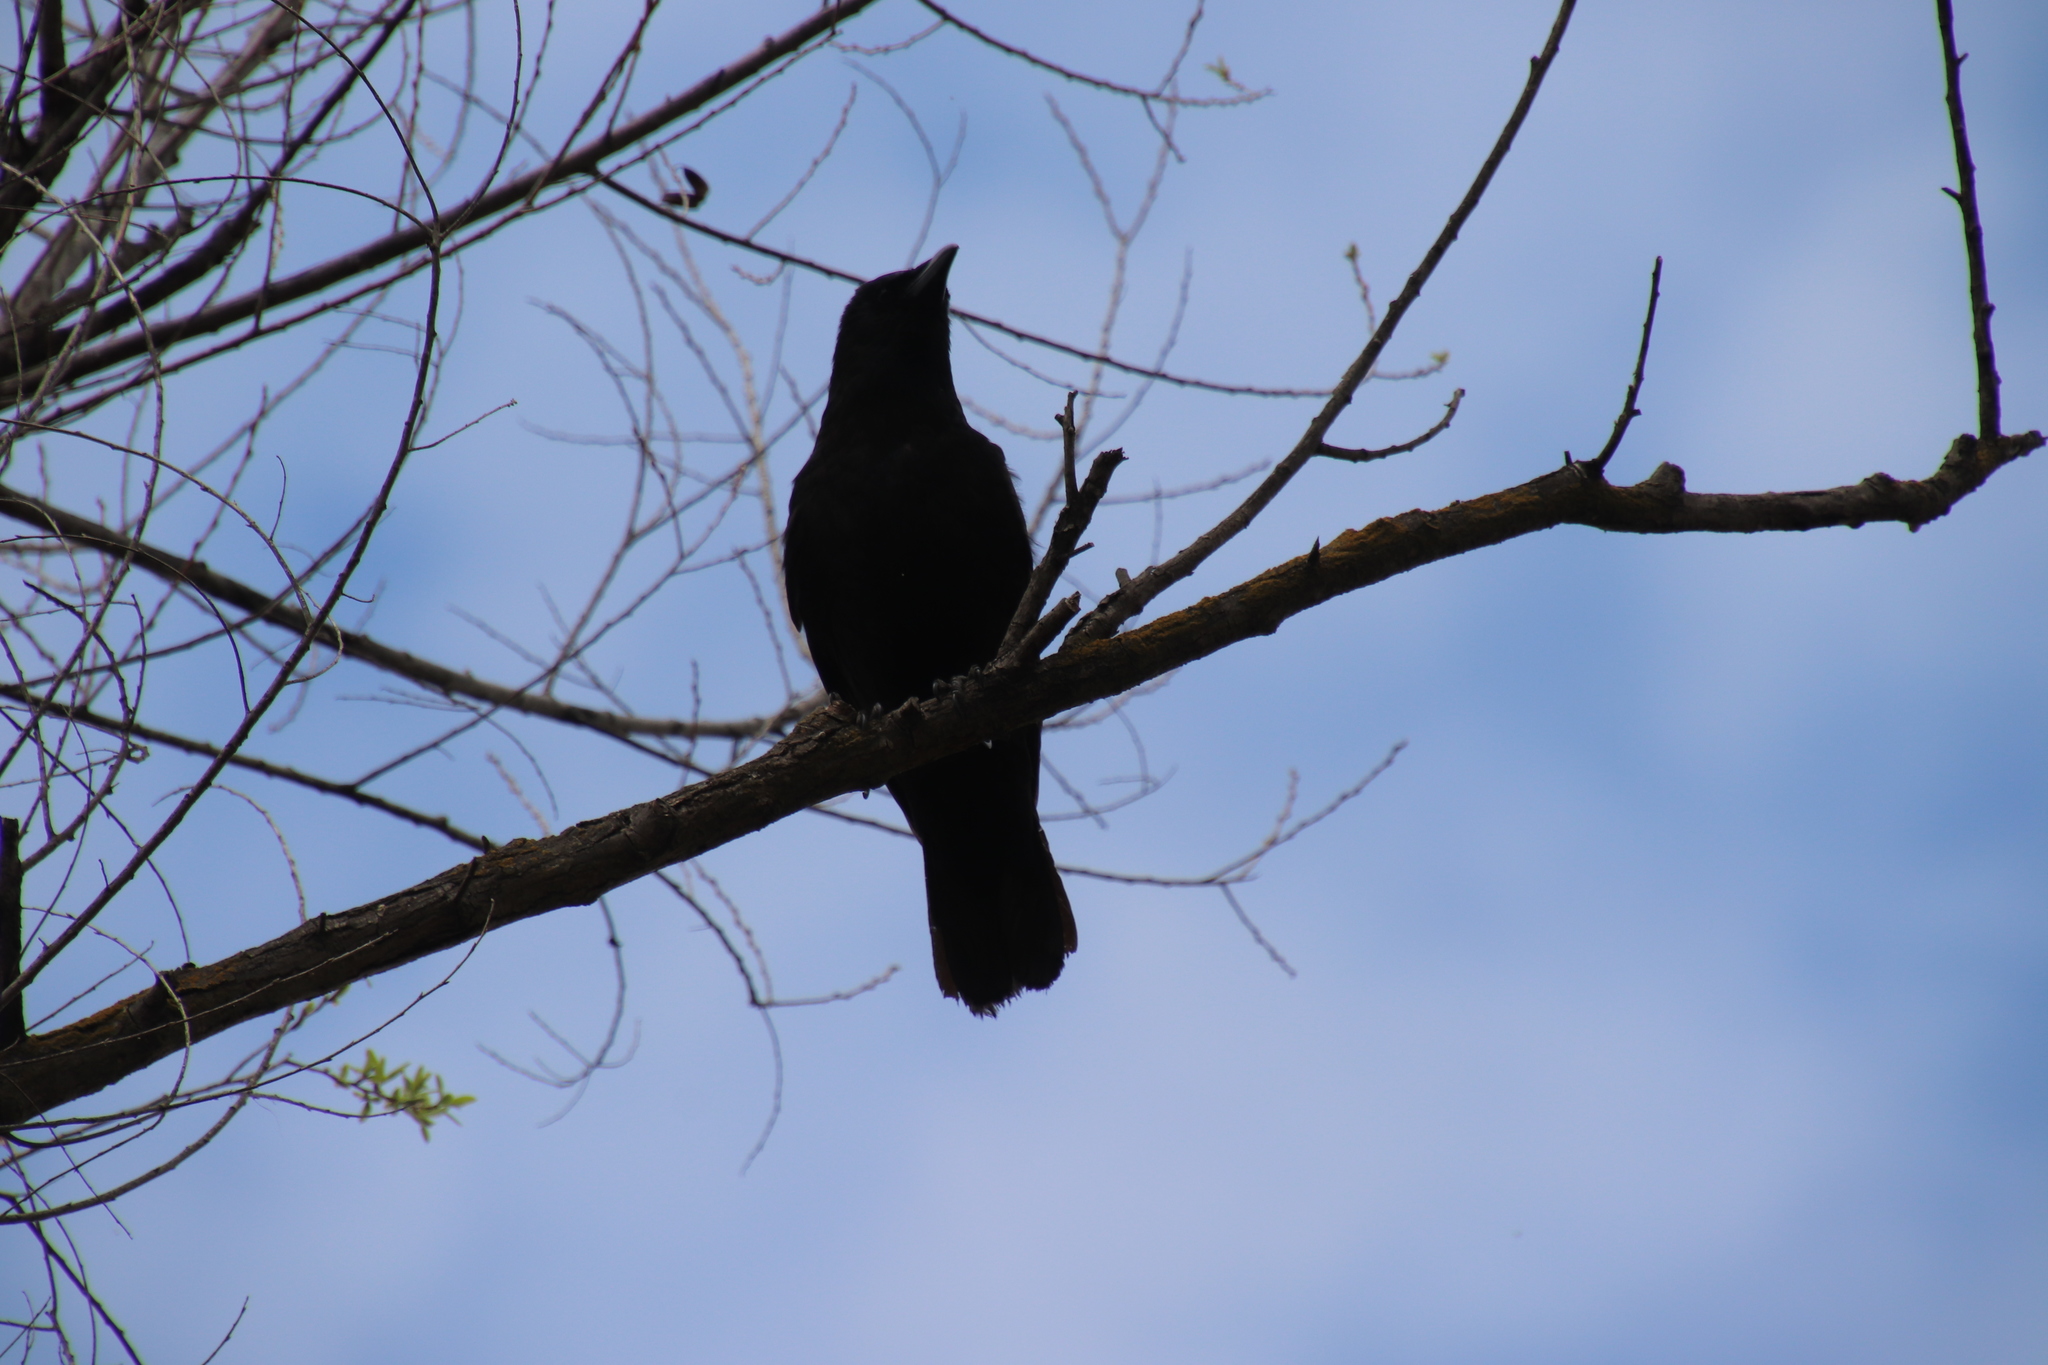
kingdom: Animalia
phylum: Chordata
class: Aves
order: Passeriformes
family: Corvidae
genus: Corvus
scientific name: Corvus brachyrhynchos
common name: American crow
